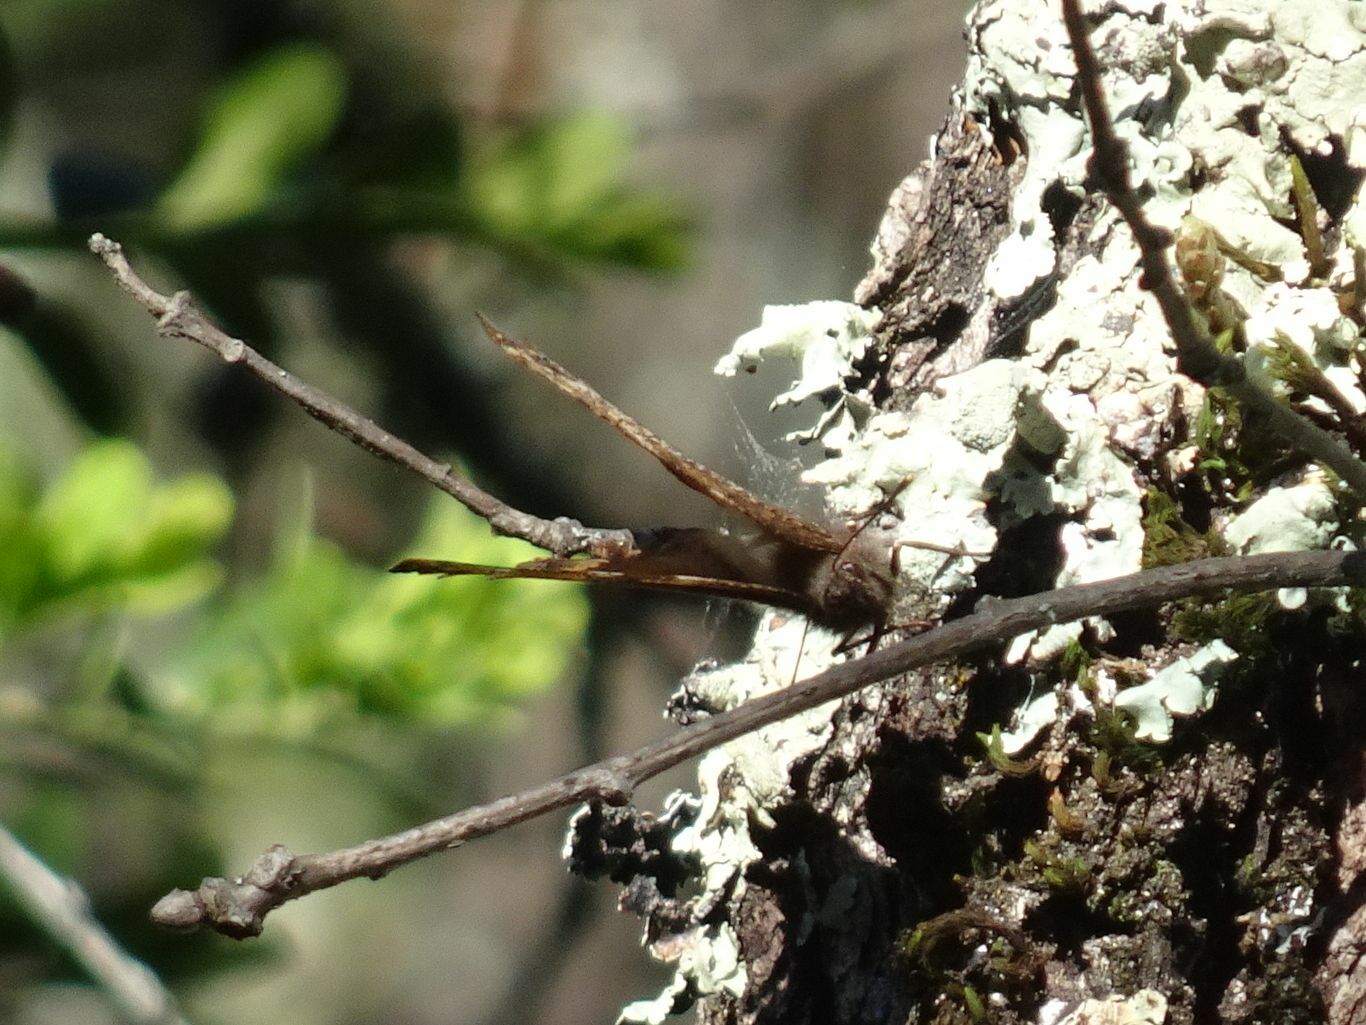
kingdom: Animalia
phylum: Arthropoda
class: Insecta
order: Lepidoptera
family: Nymphalidae
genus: Nymphalis
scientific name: Nymphalis polychloros
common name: Large tortoiseshell
